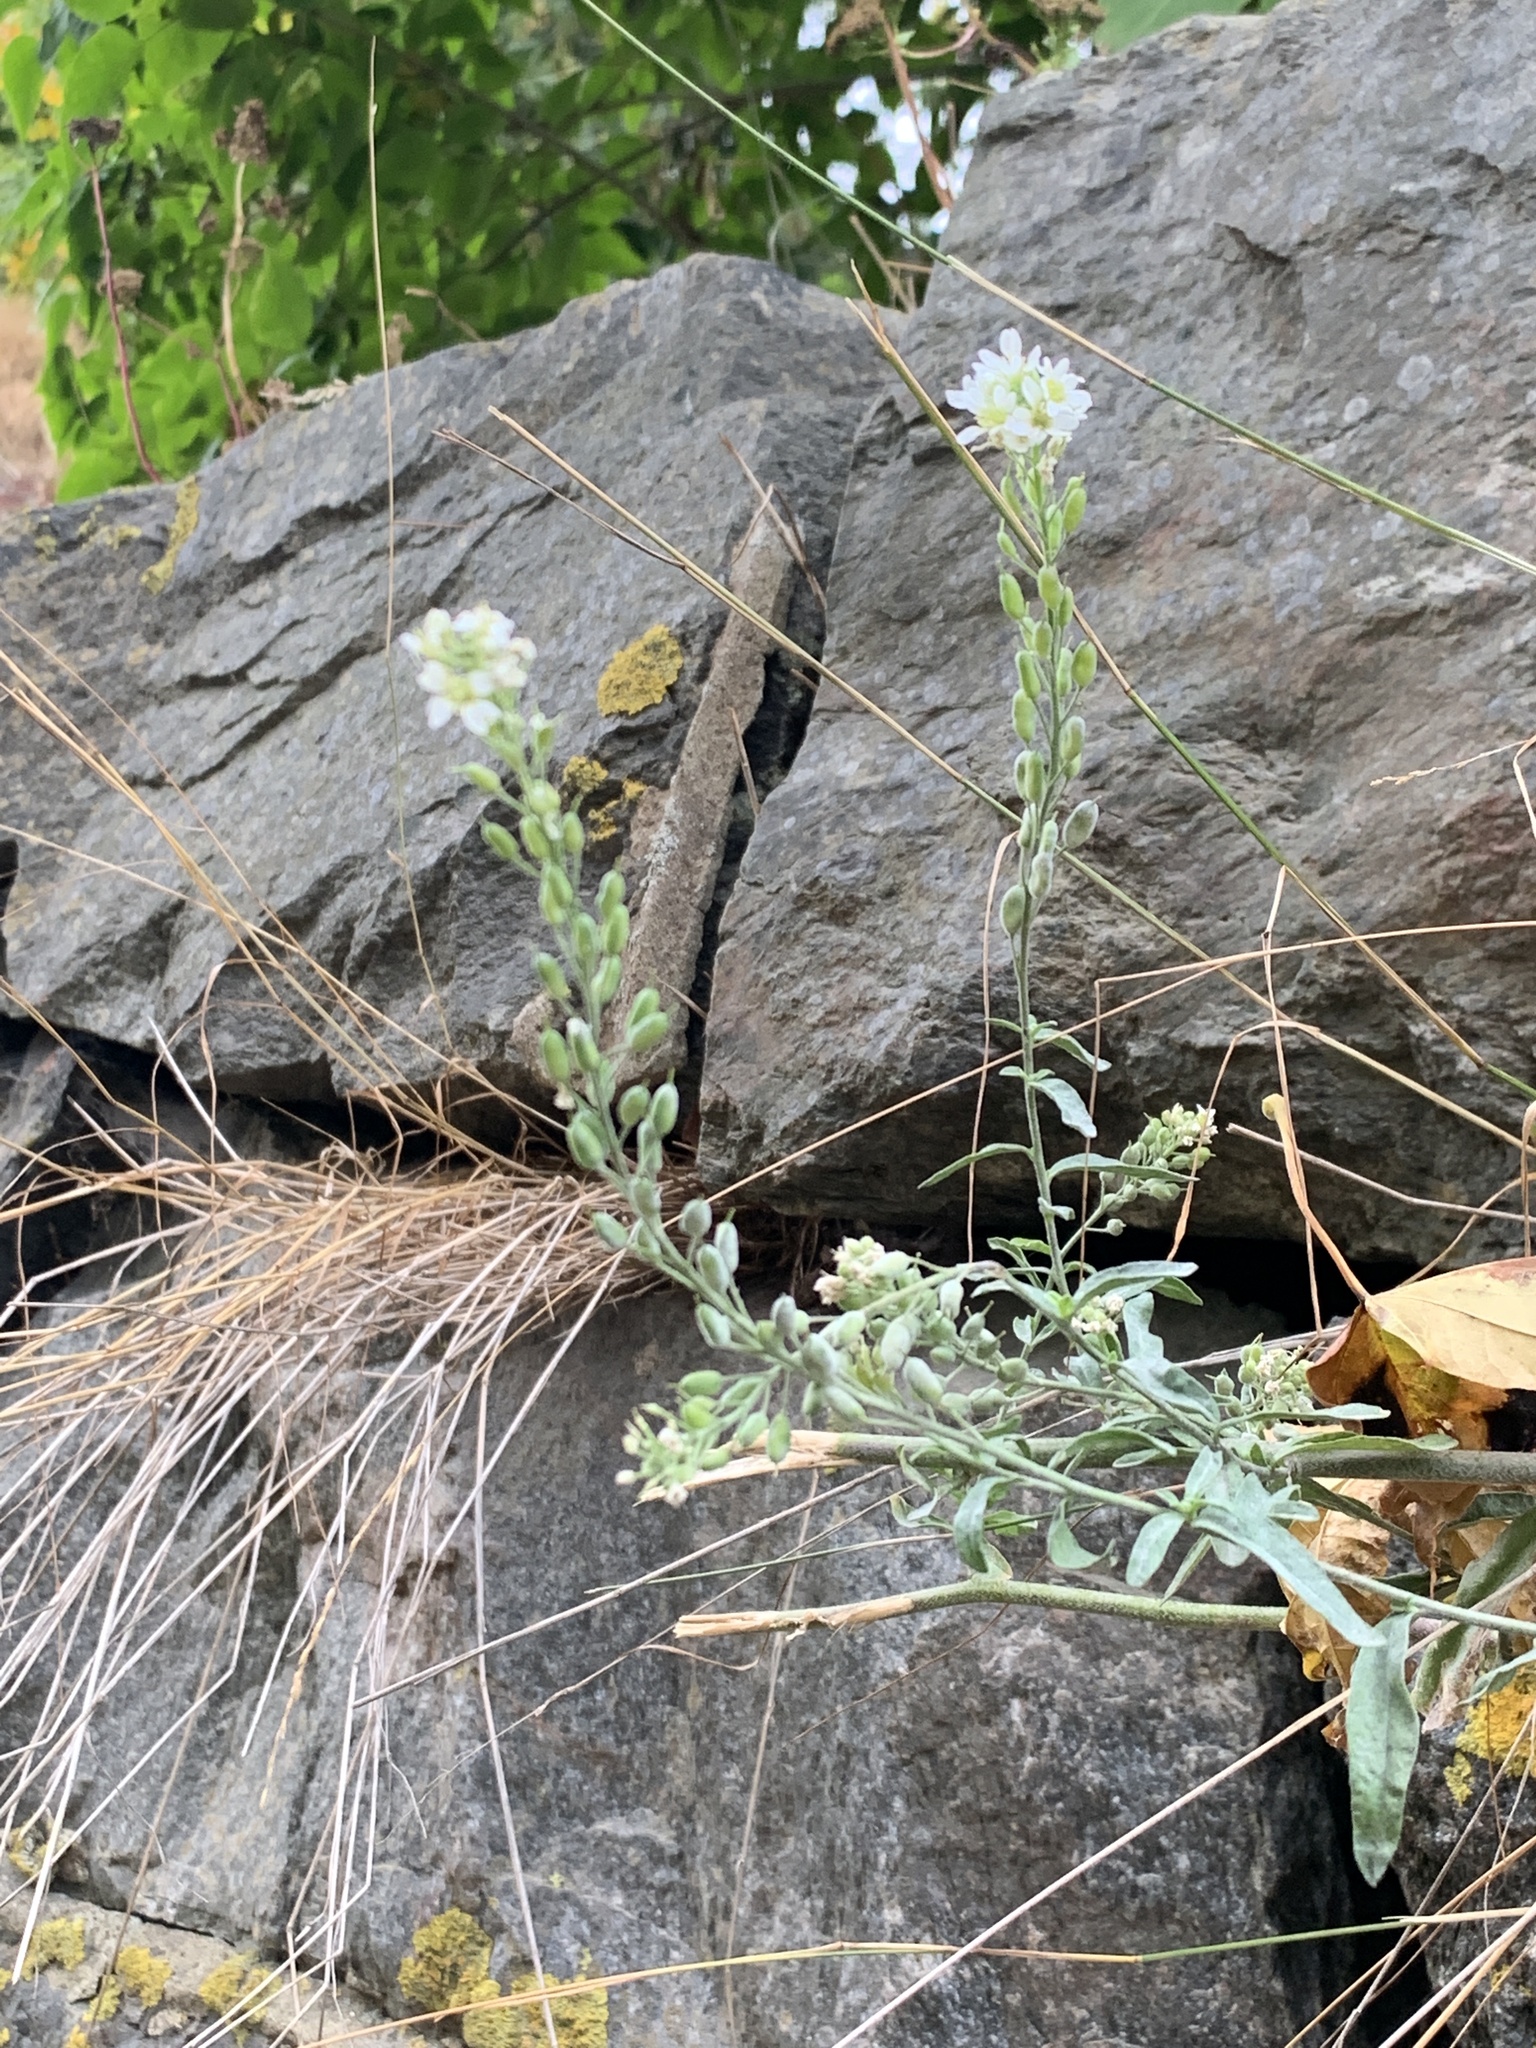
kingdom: Plantae
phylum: Tracheophyta
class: Magnoliopsida
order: Brassicales
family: Brassicaceae
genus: Berteroa
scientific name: Berteroa incana
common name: Hoary alison
